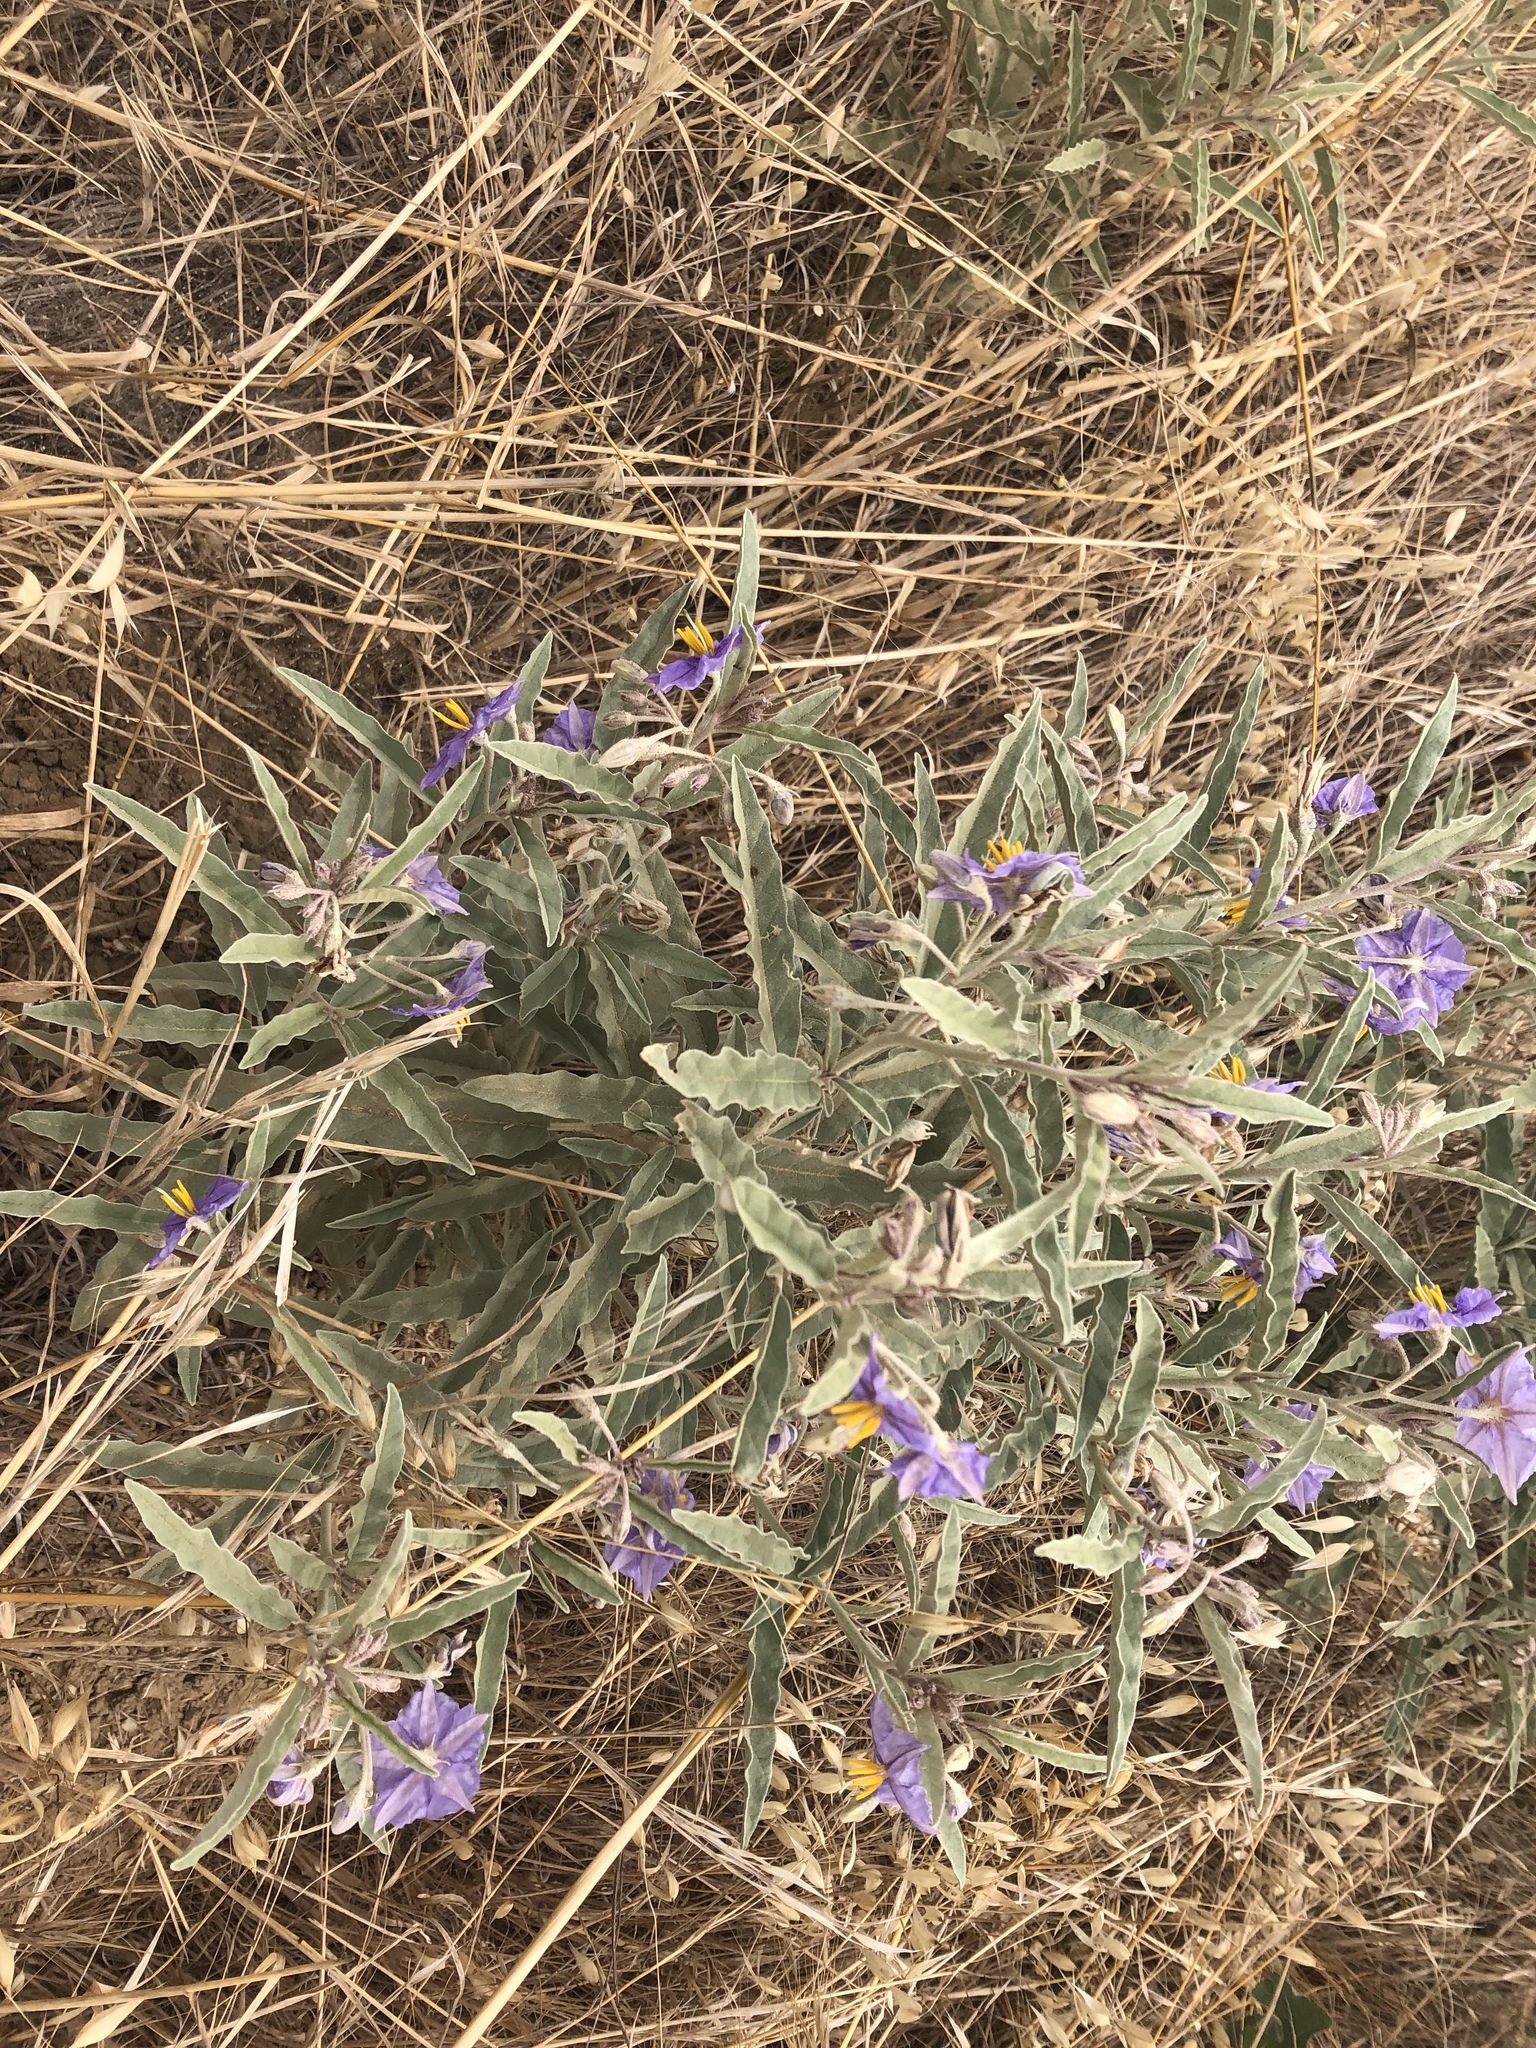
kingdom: Plantae
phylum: Tracheophyta
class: Magnoliopsida
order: Solanales
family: Solanaceae
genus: Solanum
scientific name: Solanum elaeagnifolium
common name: Silverleaf nightshade
